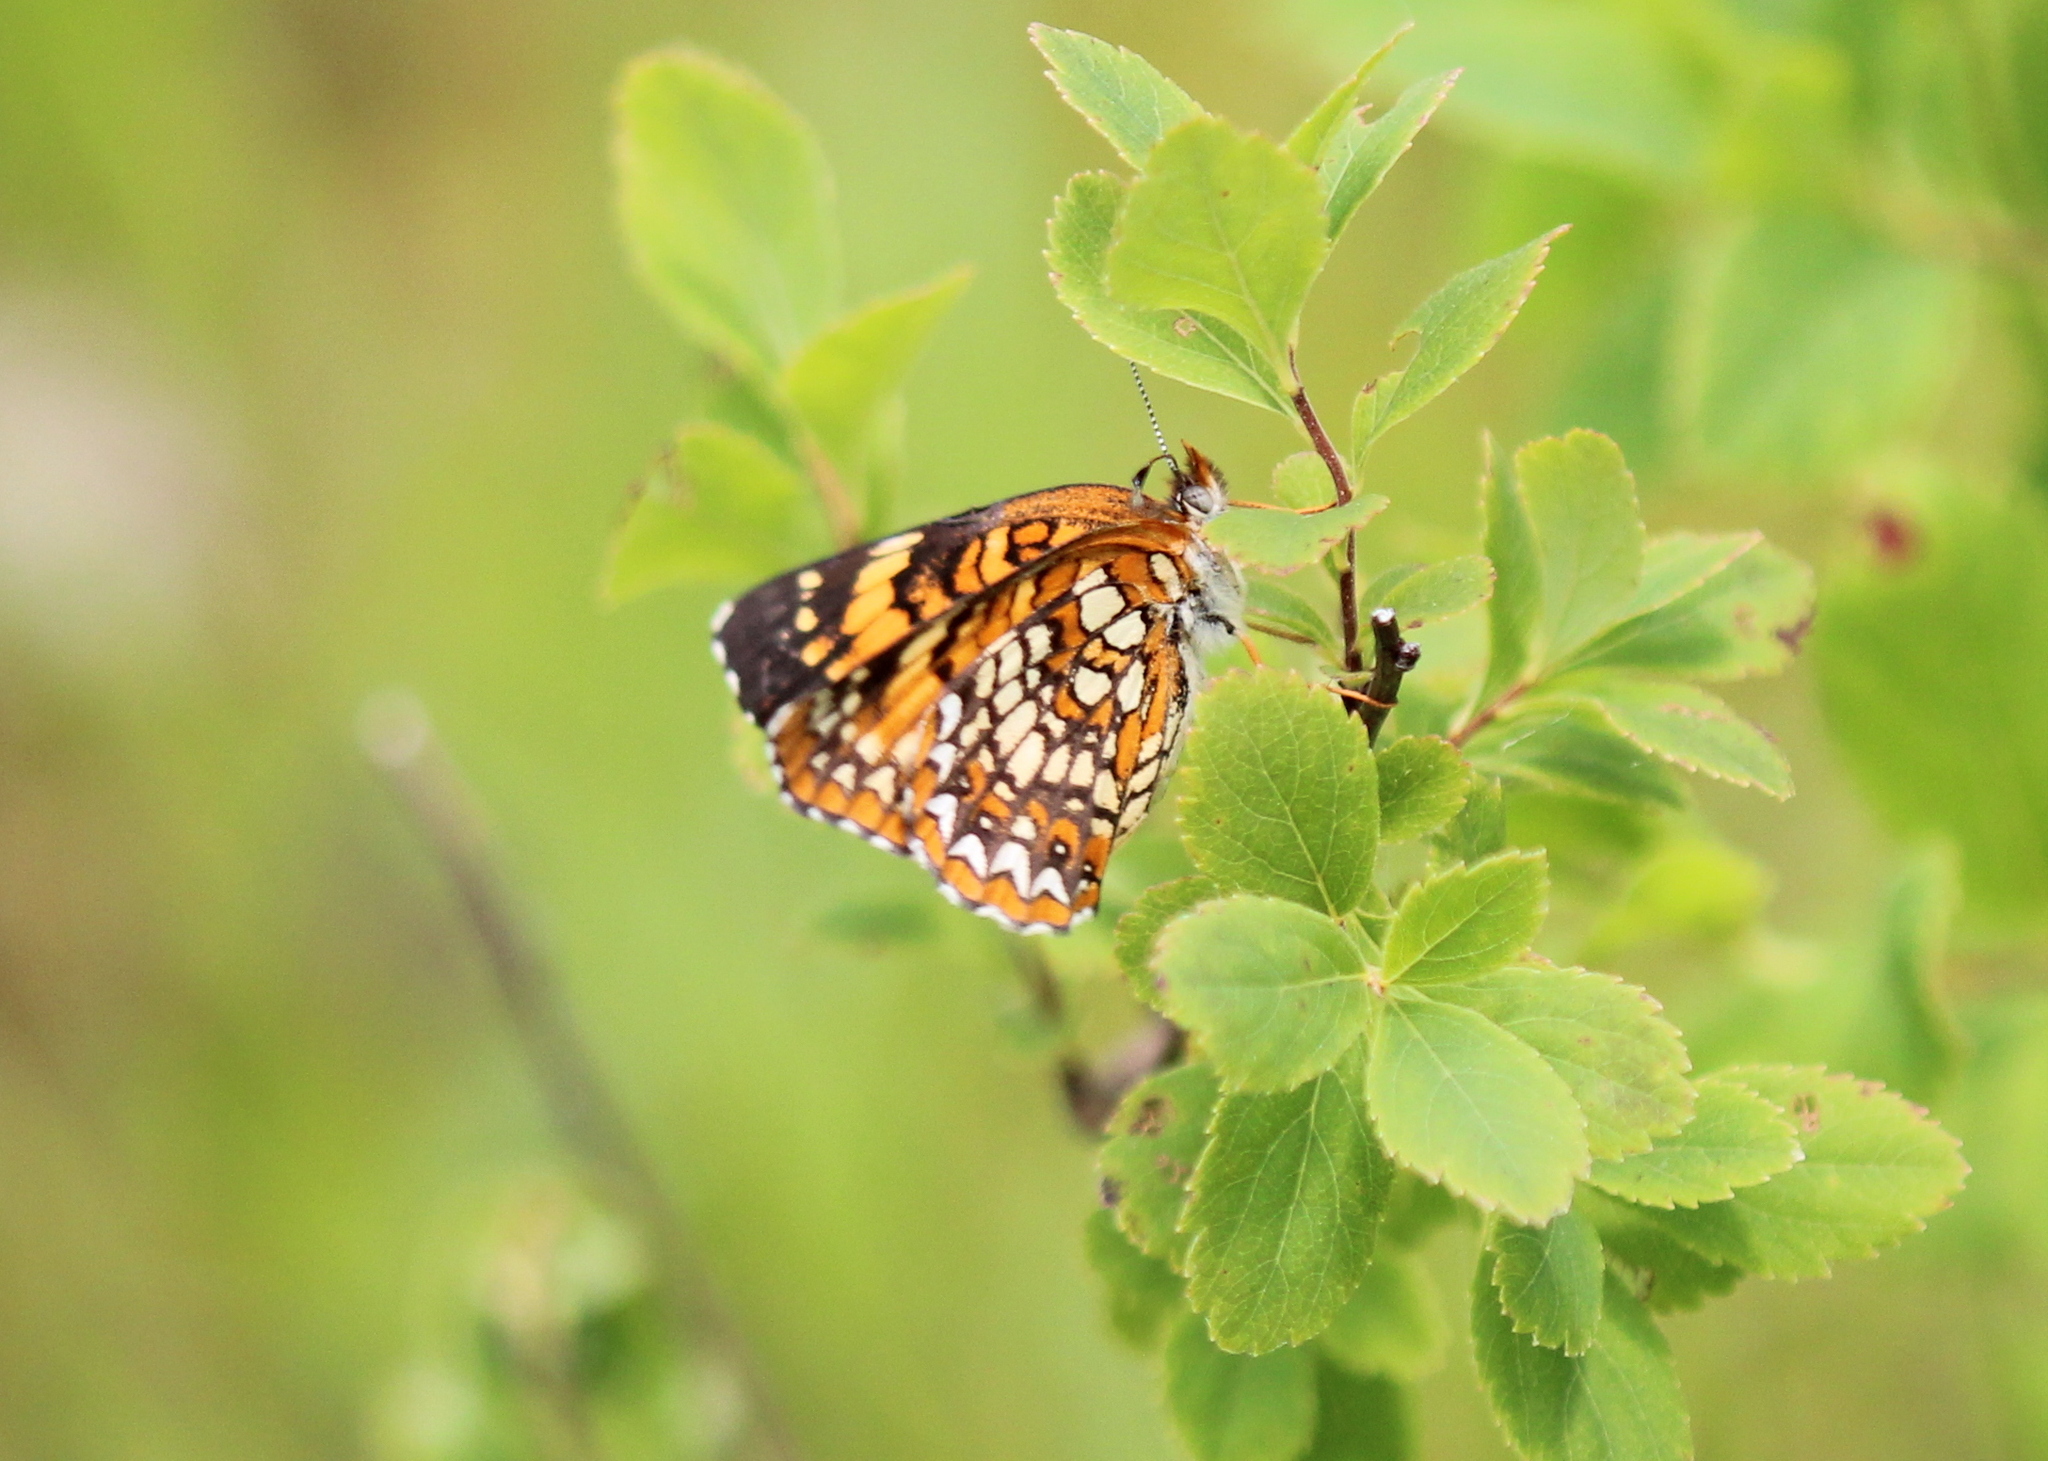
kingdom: Animalia
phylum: Arthropoda
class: Insecta
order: Lepidoptera
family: Nymphalidae
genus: Chlosyne
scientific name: Chlosyne harrisii
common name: Harris's checkerspot
